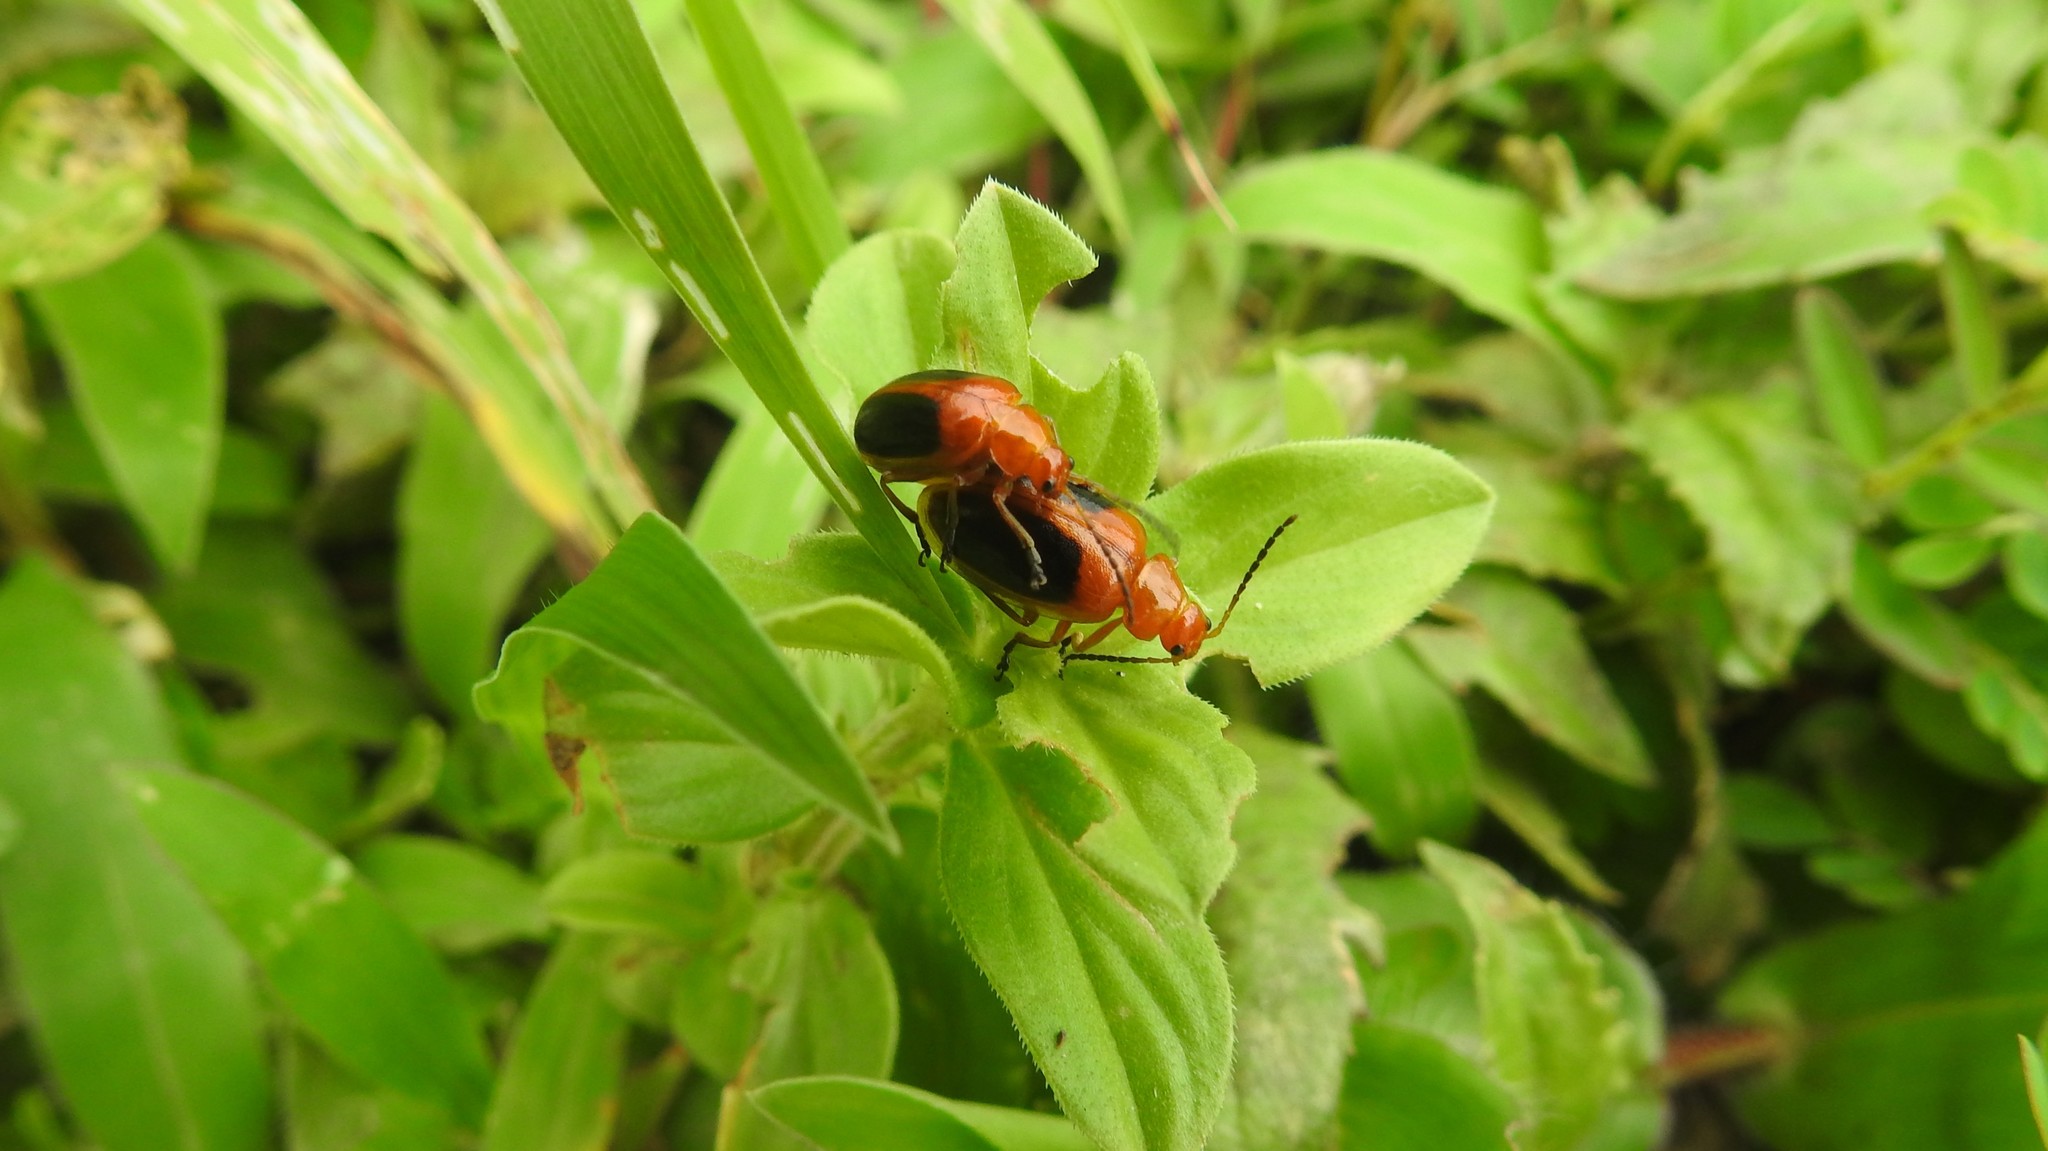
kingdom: Animalia
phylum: Arthropoda
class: Insecta
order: Coleoptera
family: Chrysomelidae
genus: Oides
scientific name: Oides affinis
